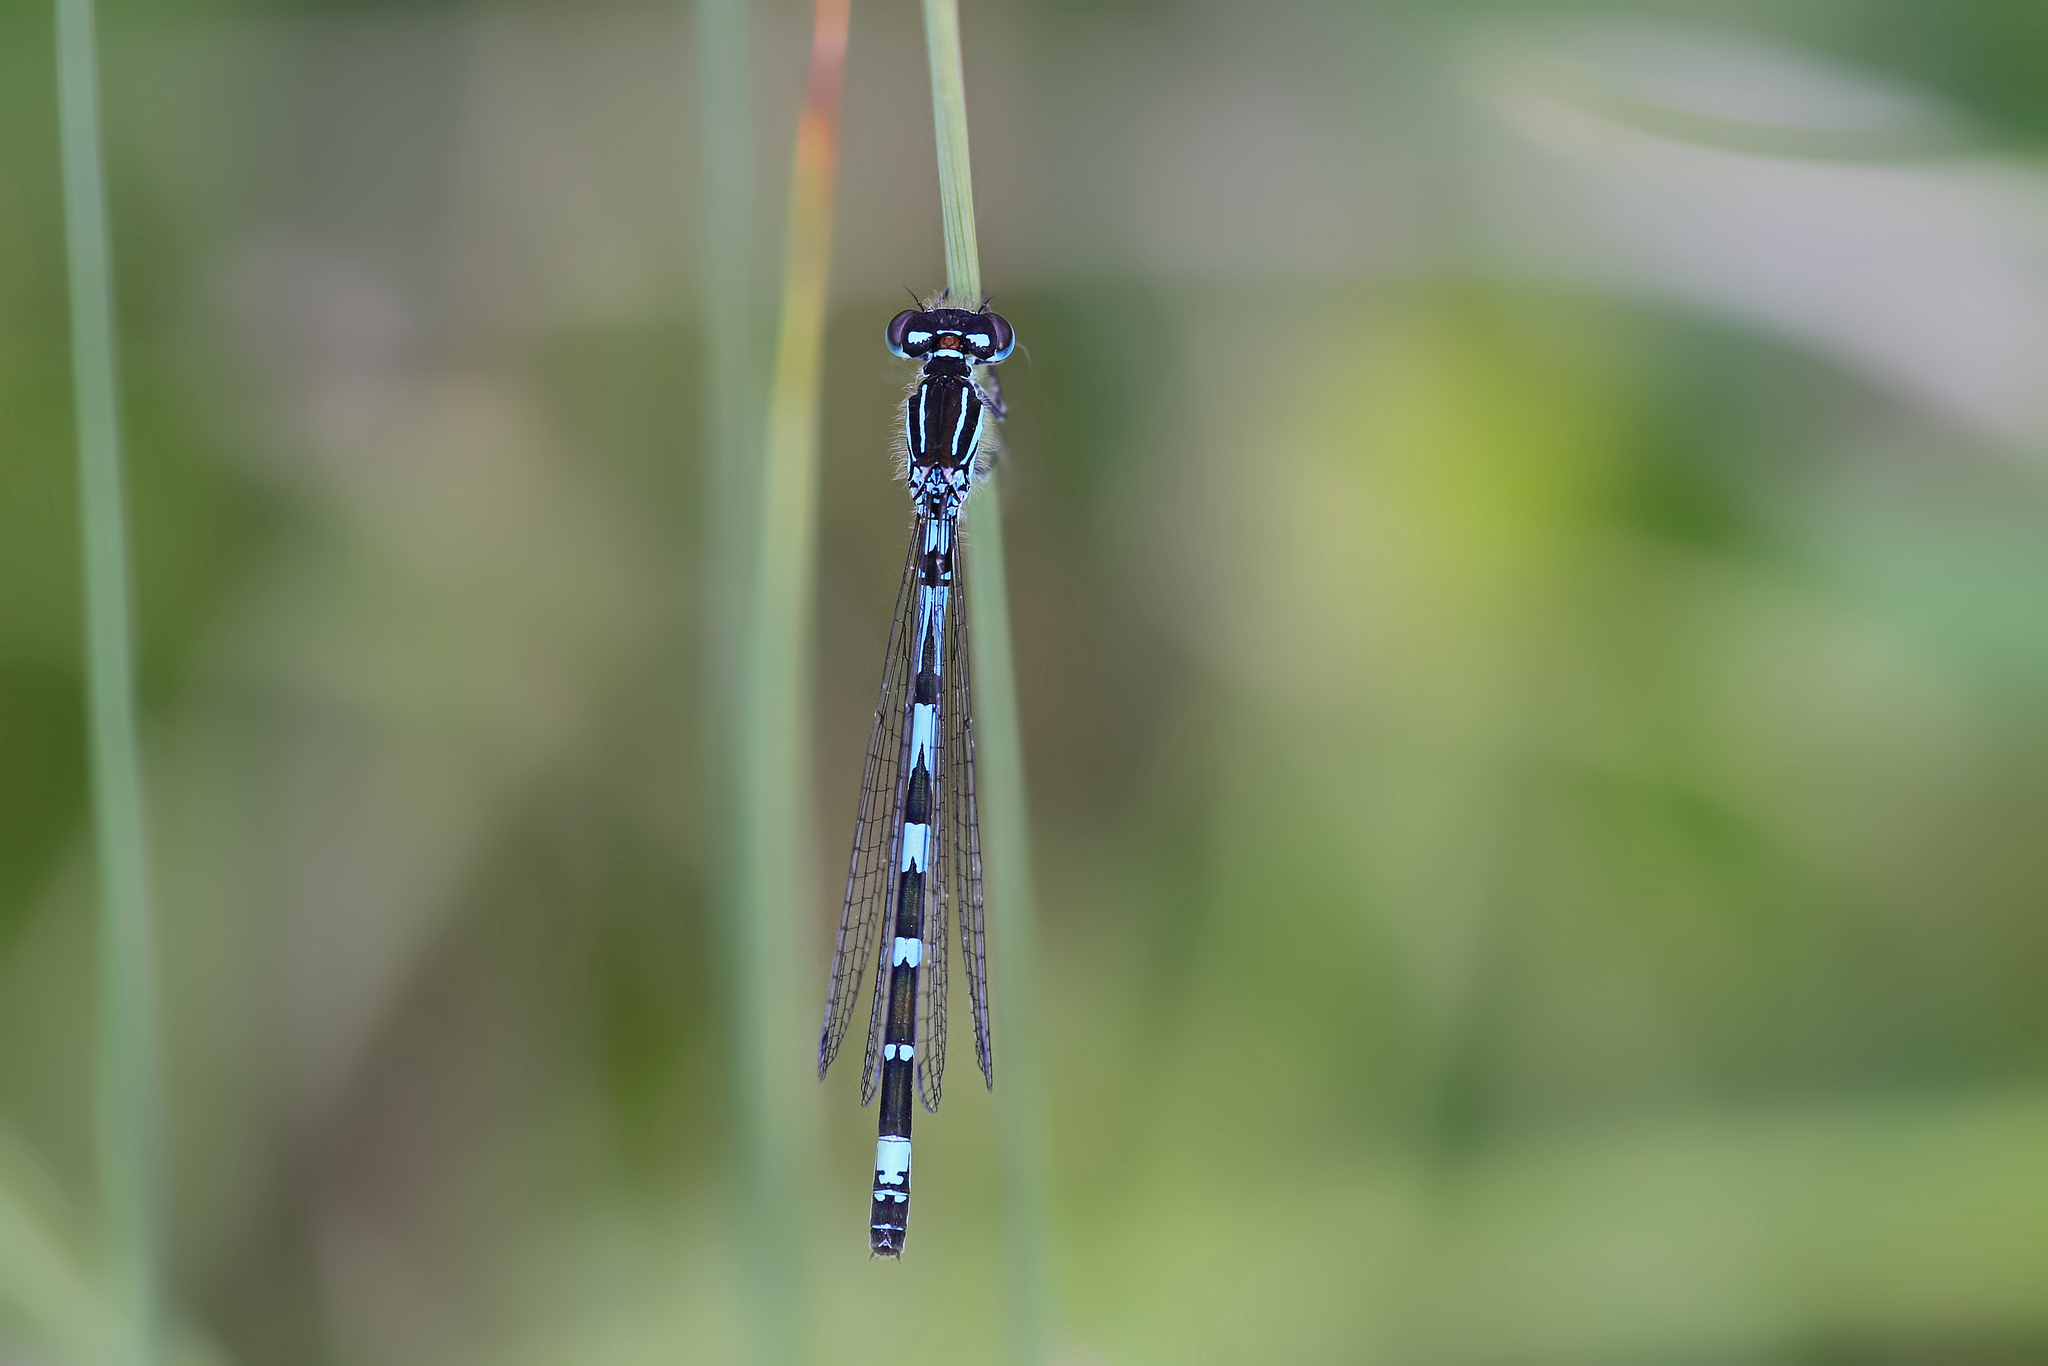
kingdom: Animalia
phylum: Arthropoda
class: Insecta
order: Odonata
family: Coenagrionidae
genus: Coenagrion
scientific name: Coenagrion ornatum
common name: Ornate bluet
